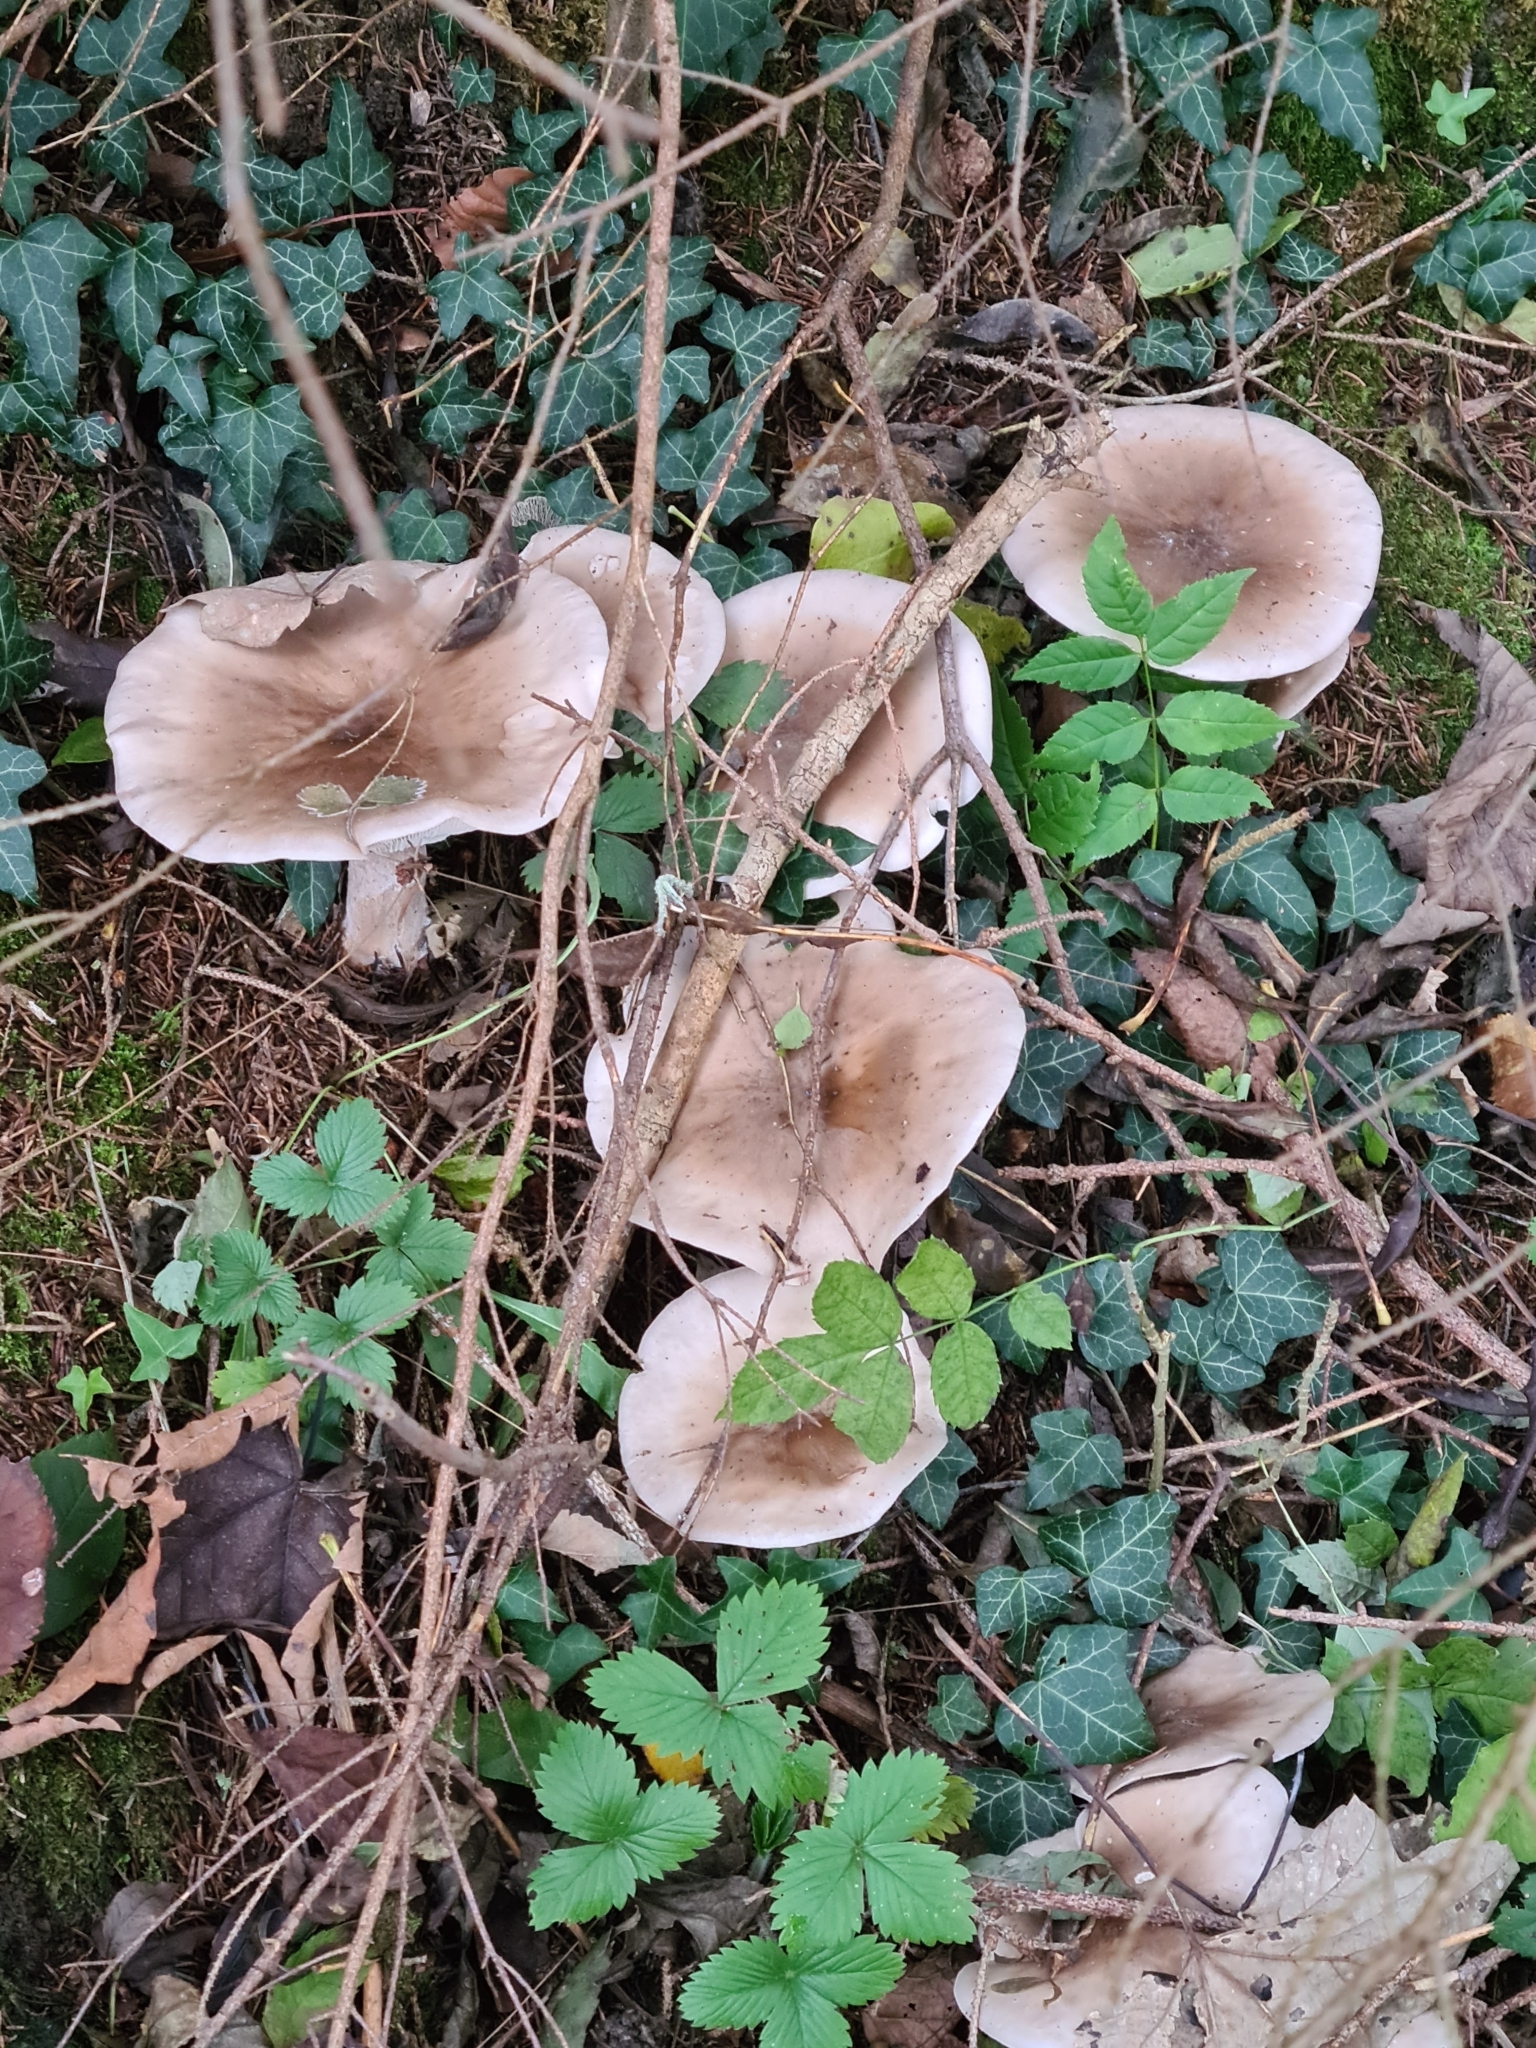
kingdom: Fungi
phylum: Basidiomycota
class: Agaricomycetes
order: Agaricales
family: Tricholomataceae
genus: Clitocybe
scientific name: Clitocybe nebularis
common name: Clouded agaric
